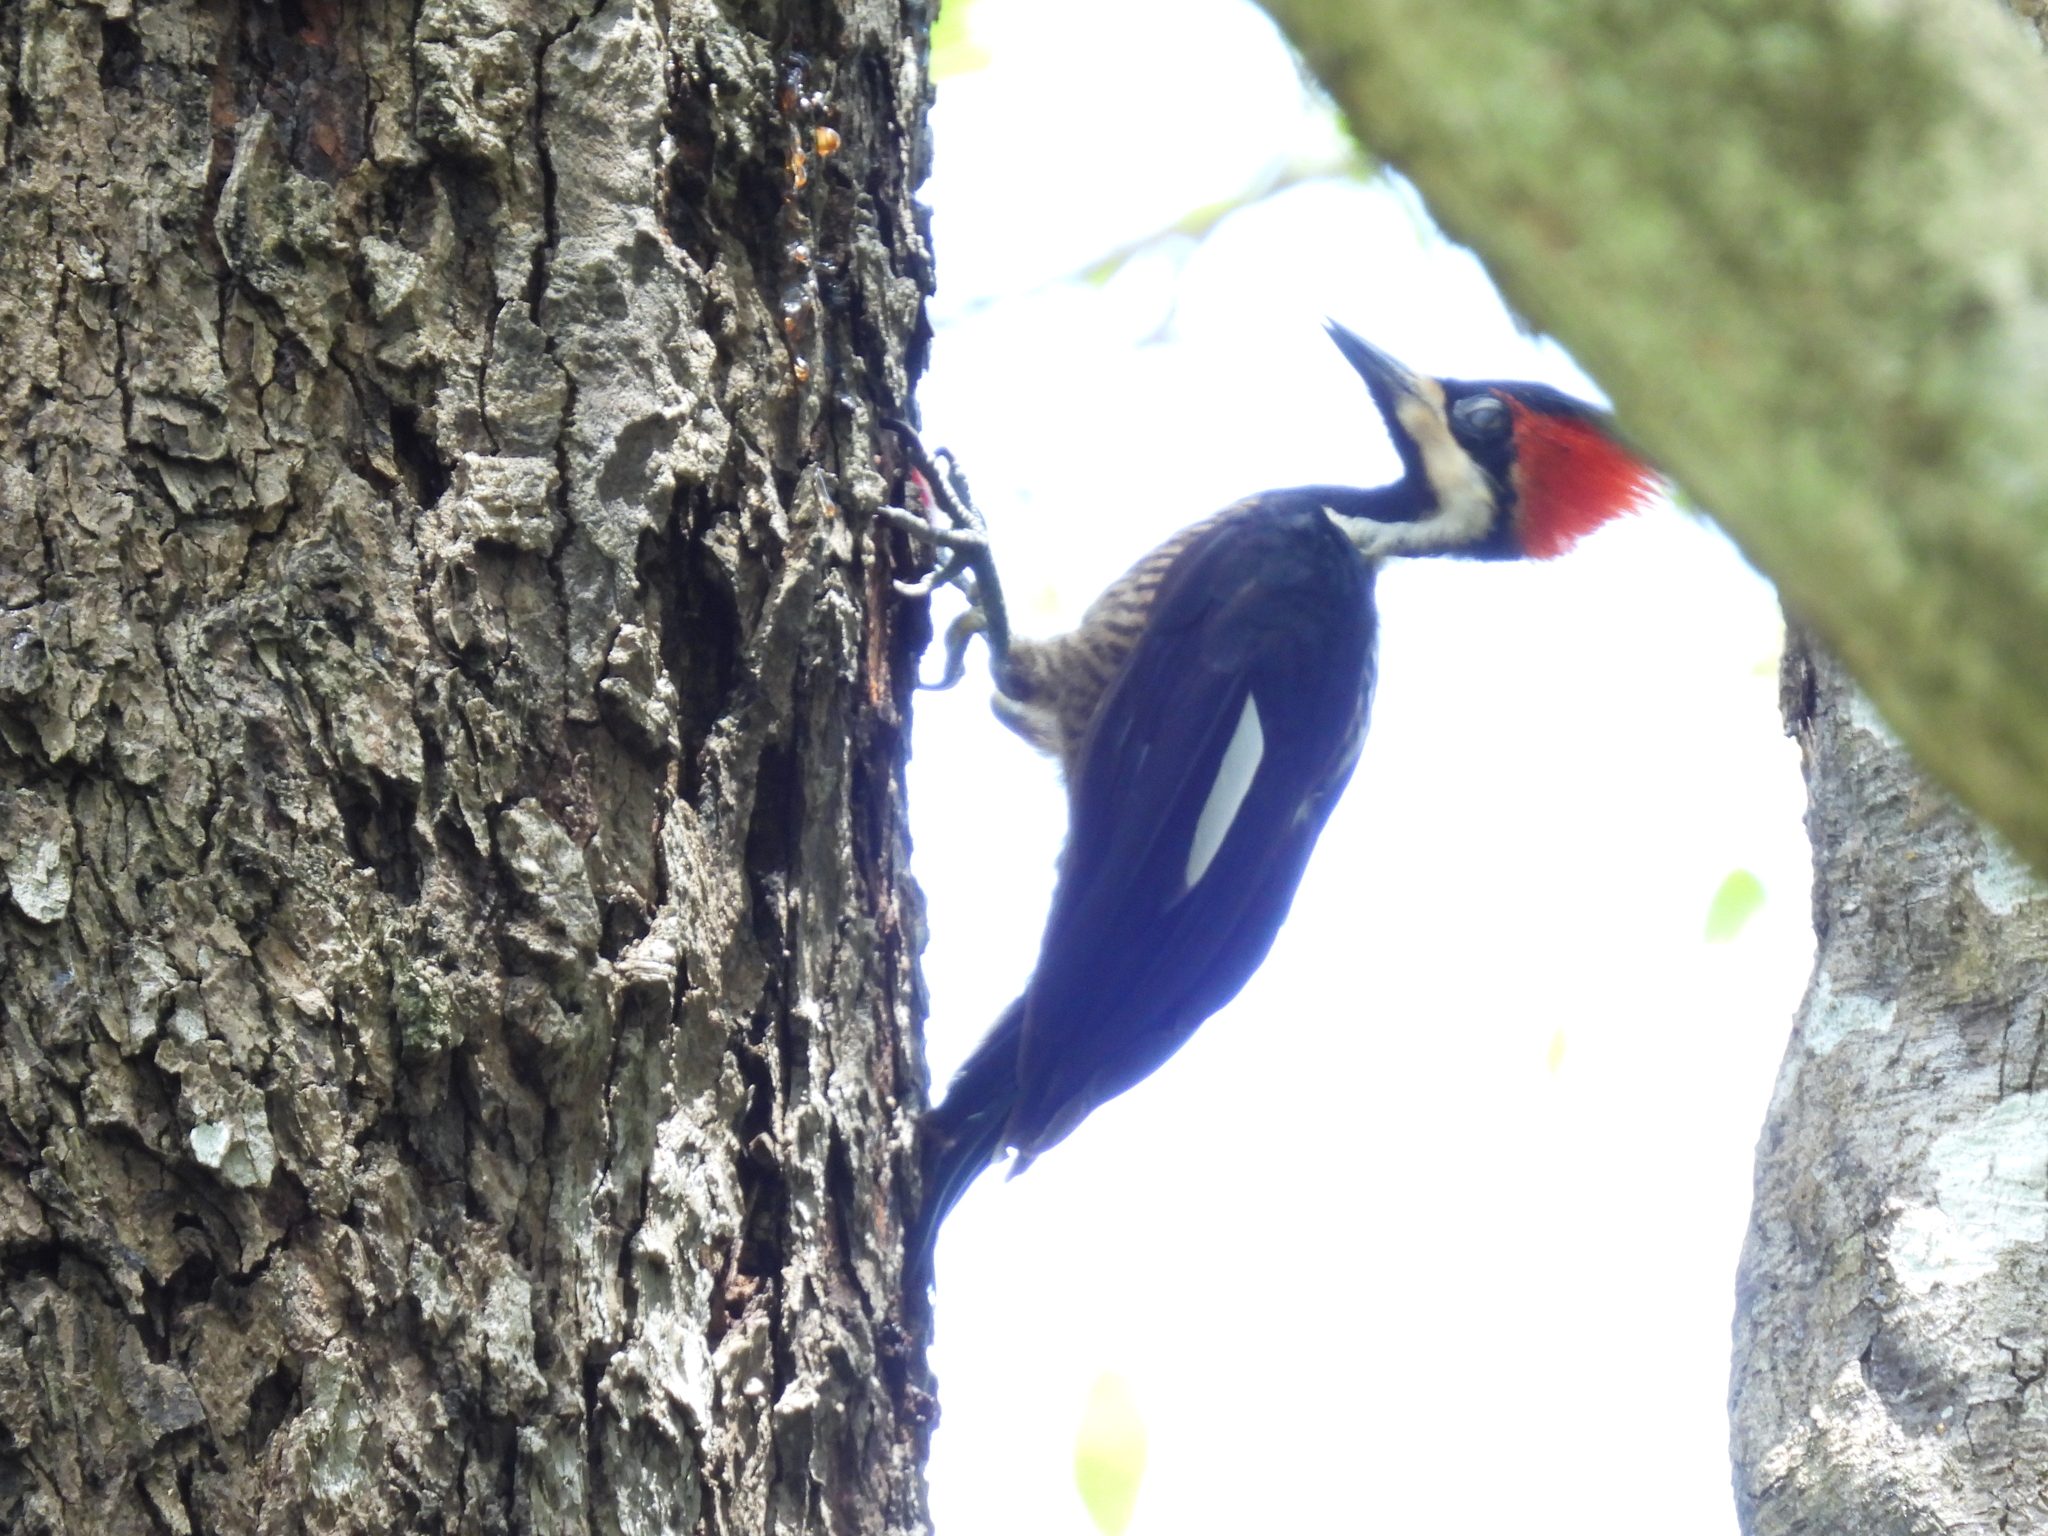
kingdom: Animalia
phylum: Chordata
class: Aves
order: Piciformes
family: Picidae
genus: Dryocopus
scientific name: Dryocopus lineatus
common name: Lineated woodpecker
